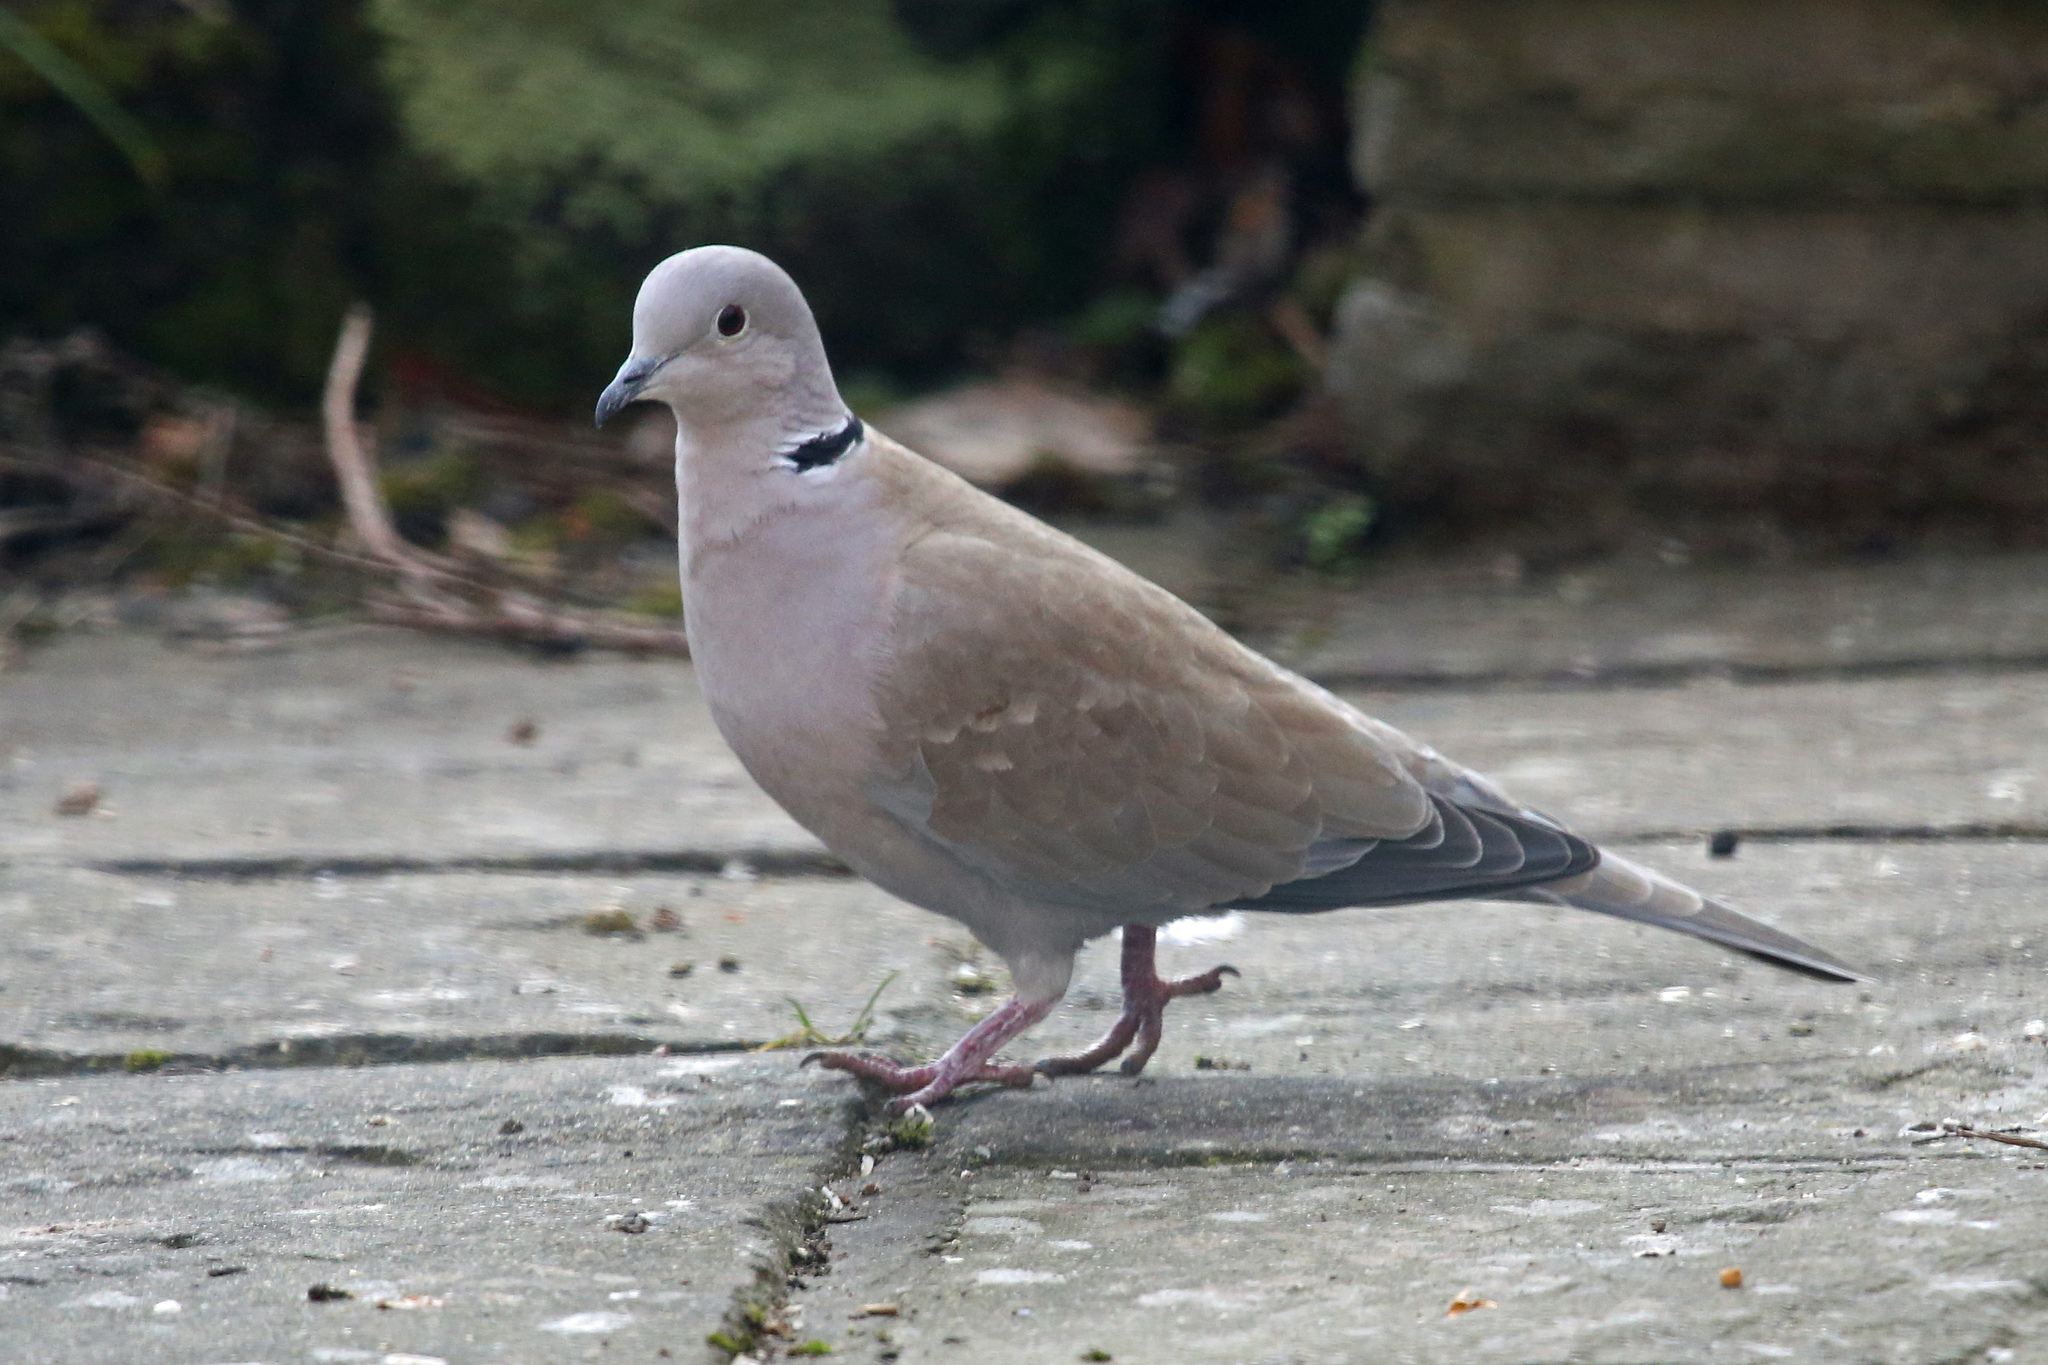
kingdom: Animalia
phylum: Chordata
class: Aves
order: Columbiformes
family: Columbidae
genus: Streptopelia
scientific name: Streptopelia decaocto
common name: Eurasian collared dove
